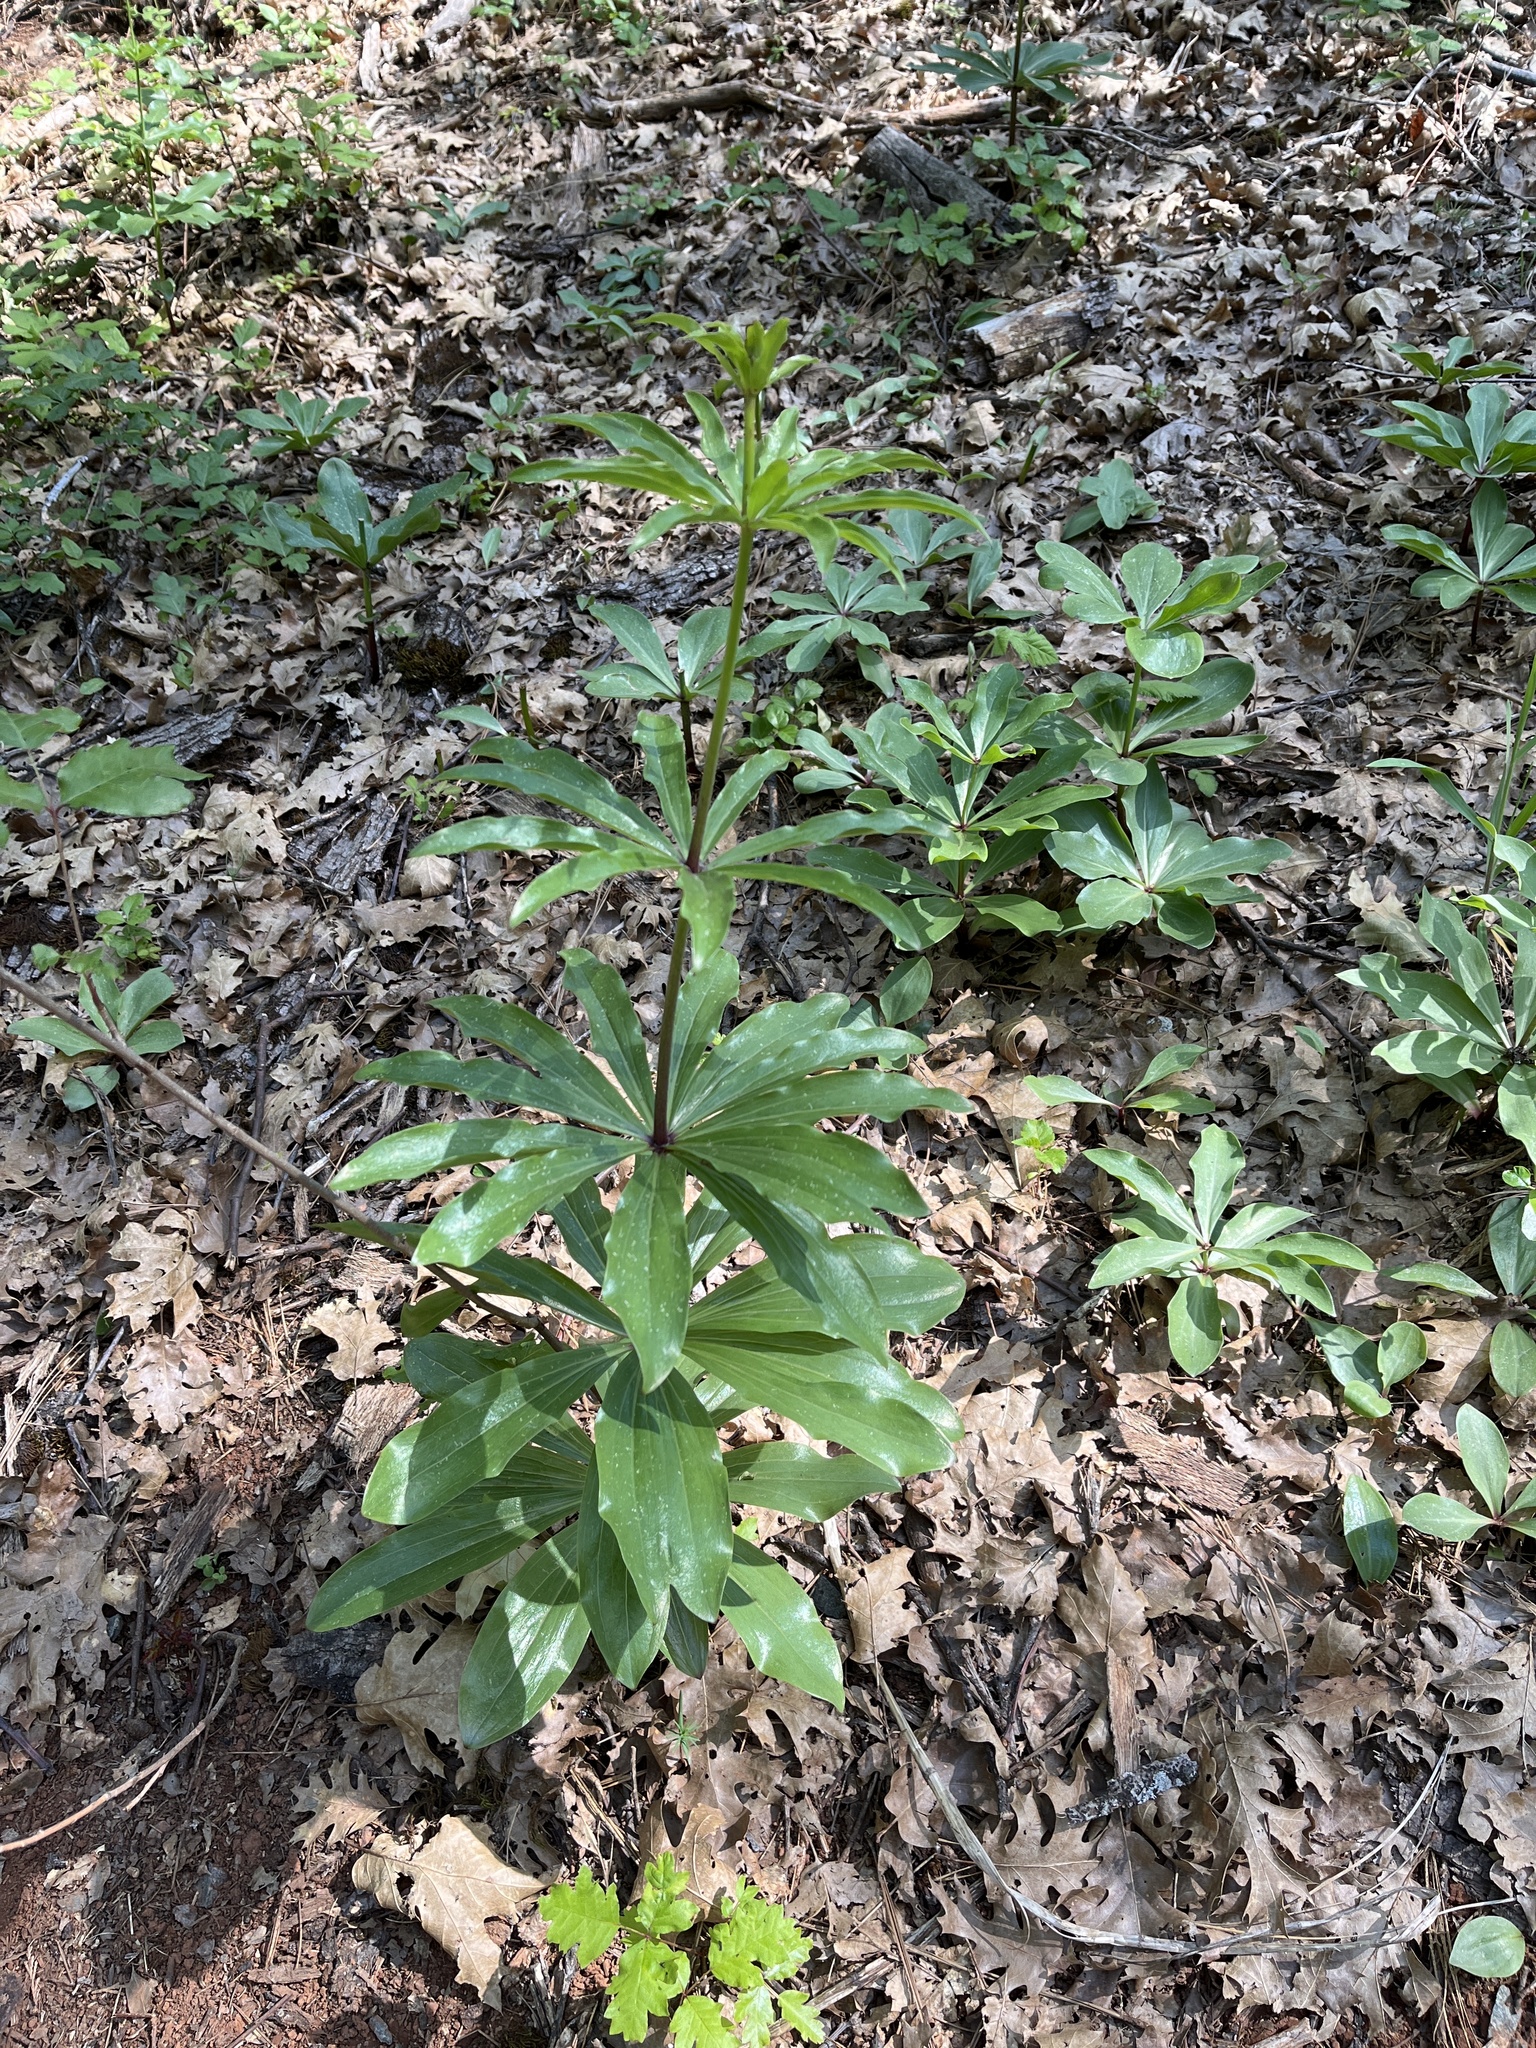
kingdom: Plantae
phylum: Tracheophyta
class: Liliopsida
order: Liliales
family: Liliaceae
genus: Lilium
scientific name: Lilium humboldtii
